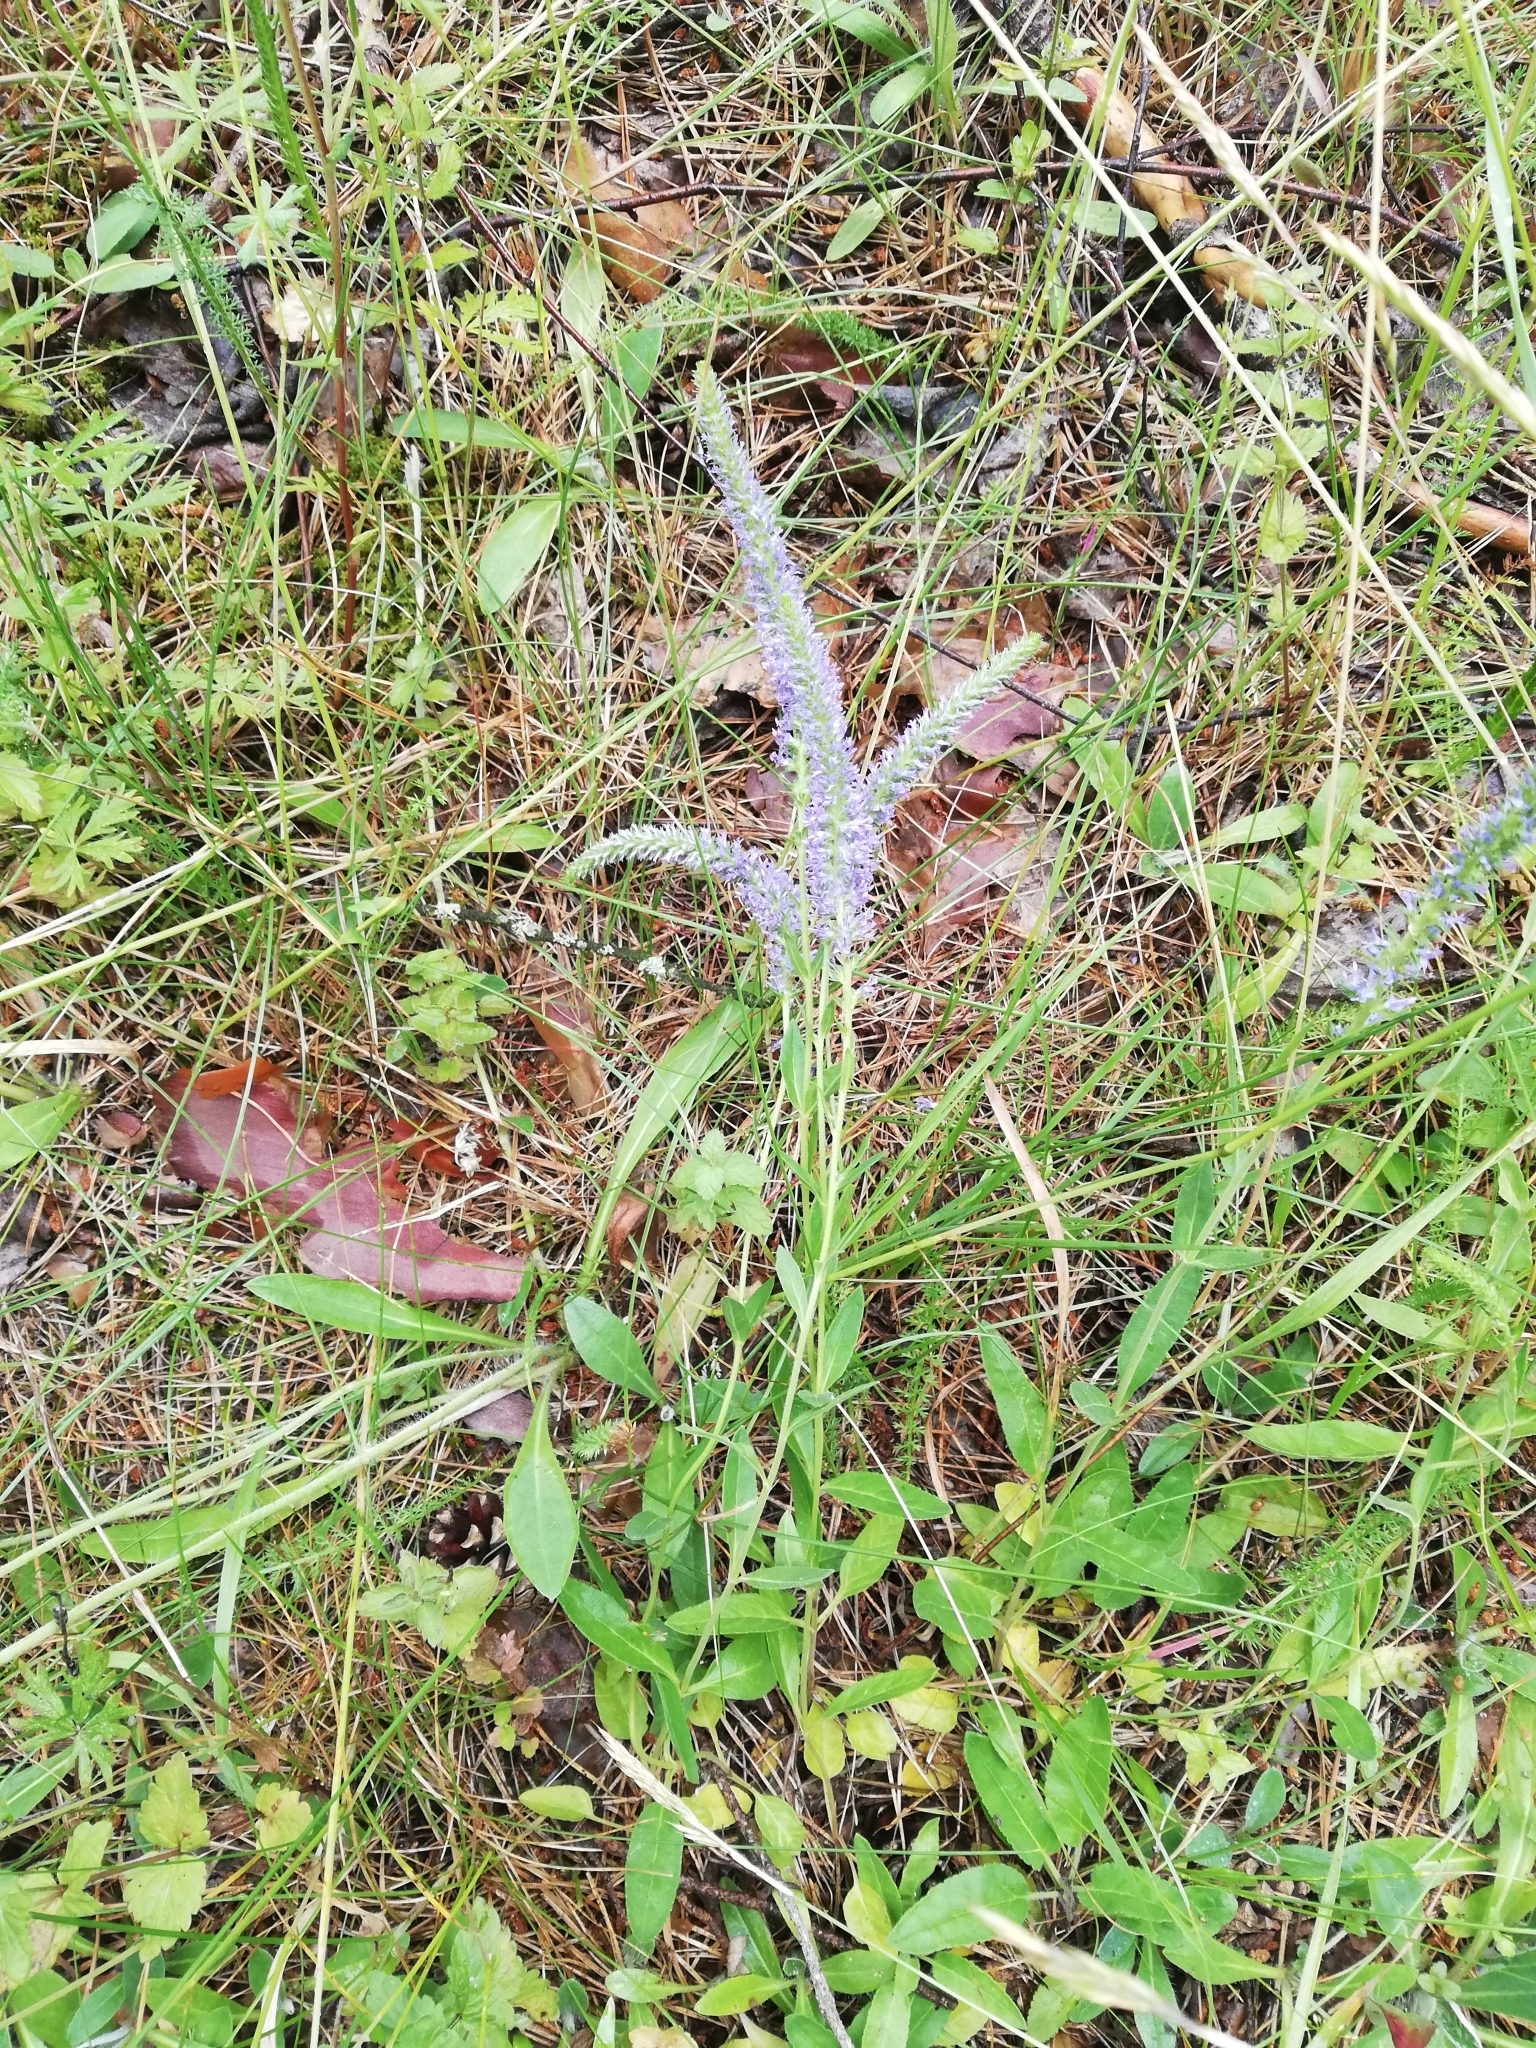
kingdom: Plantae
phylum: Tracheophyta
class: Magnoliopsida
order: Lamiales
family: Plantaginaceae
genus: Veronica
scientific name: Veronica spicata
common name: Spiked speedwell
